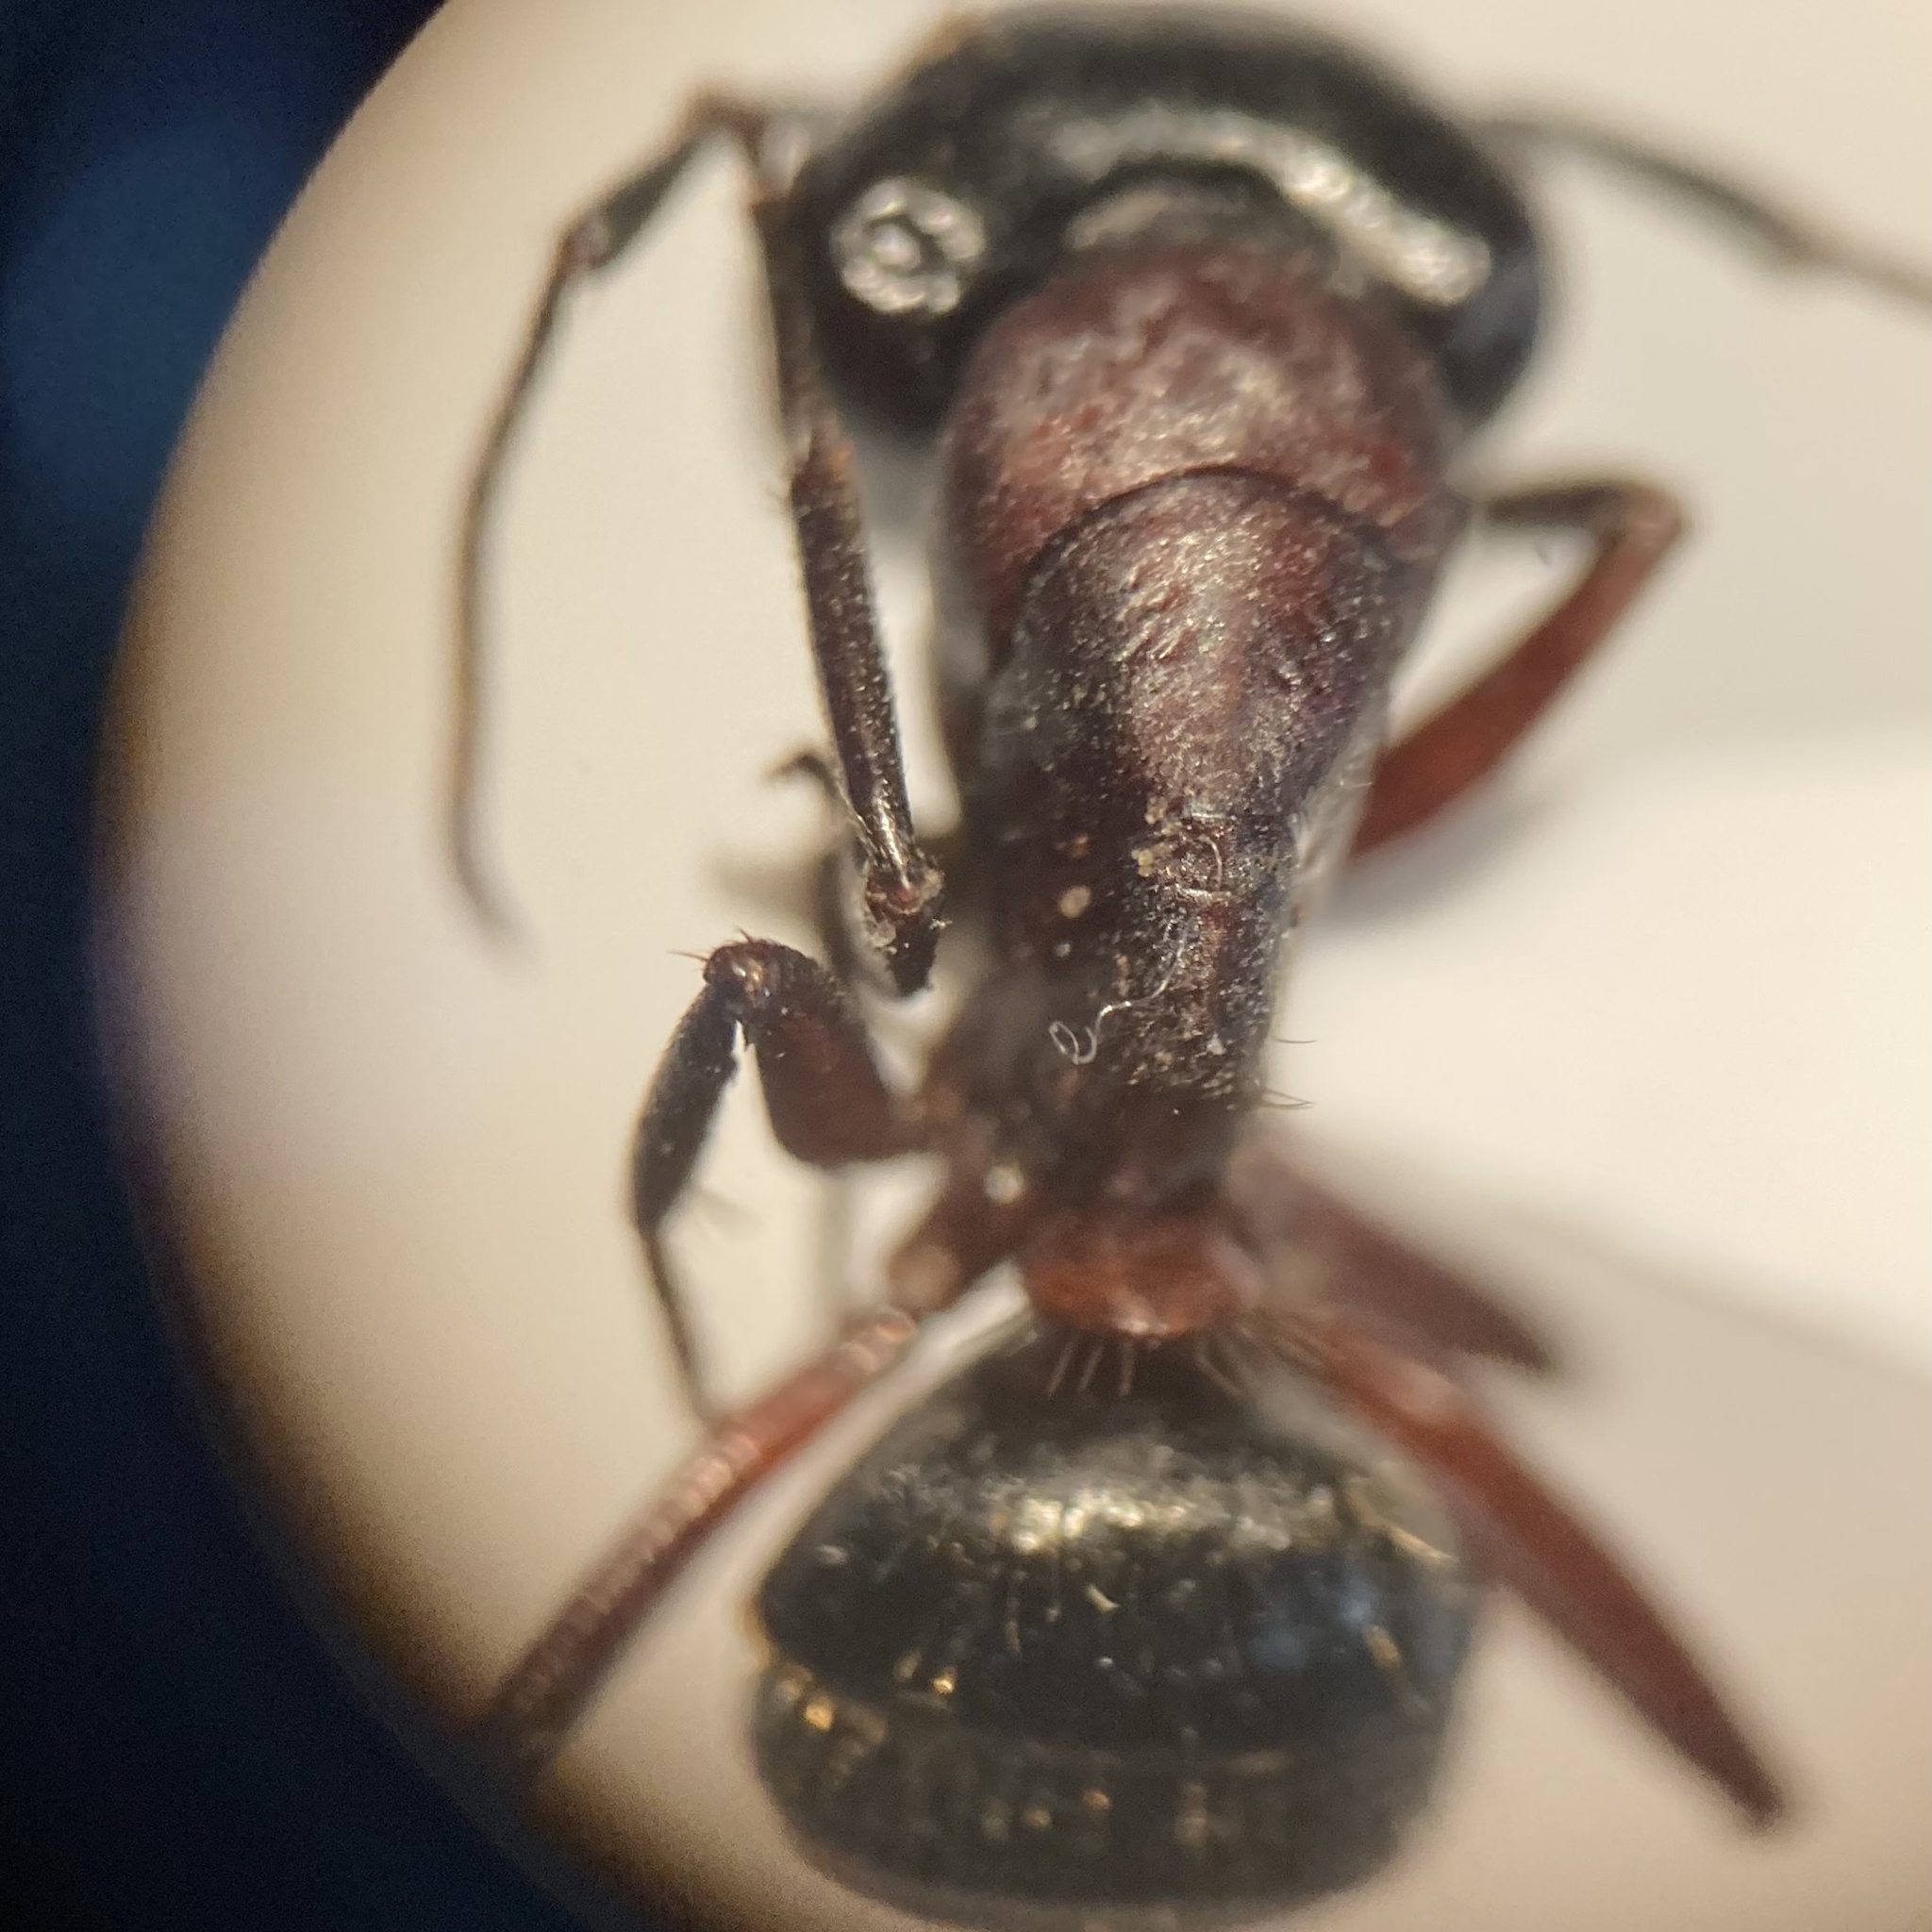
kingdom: Animalia
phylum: Arthropoda
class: Insecta
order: Hymenoptera
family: Formicidae
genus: Camponotus
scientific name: Camponotus novaeboracensis
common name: New york carpenter ant
